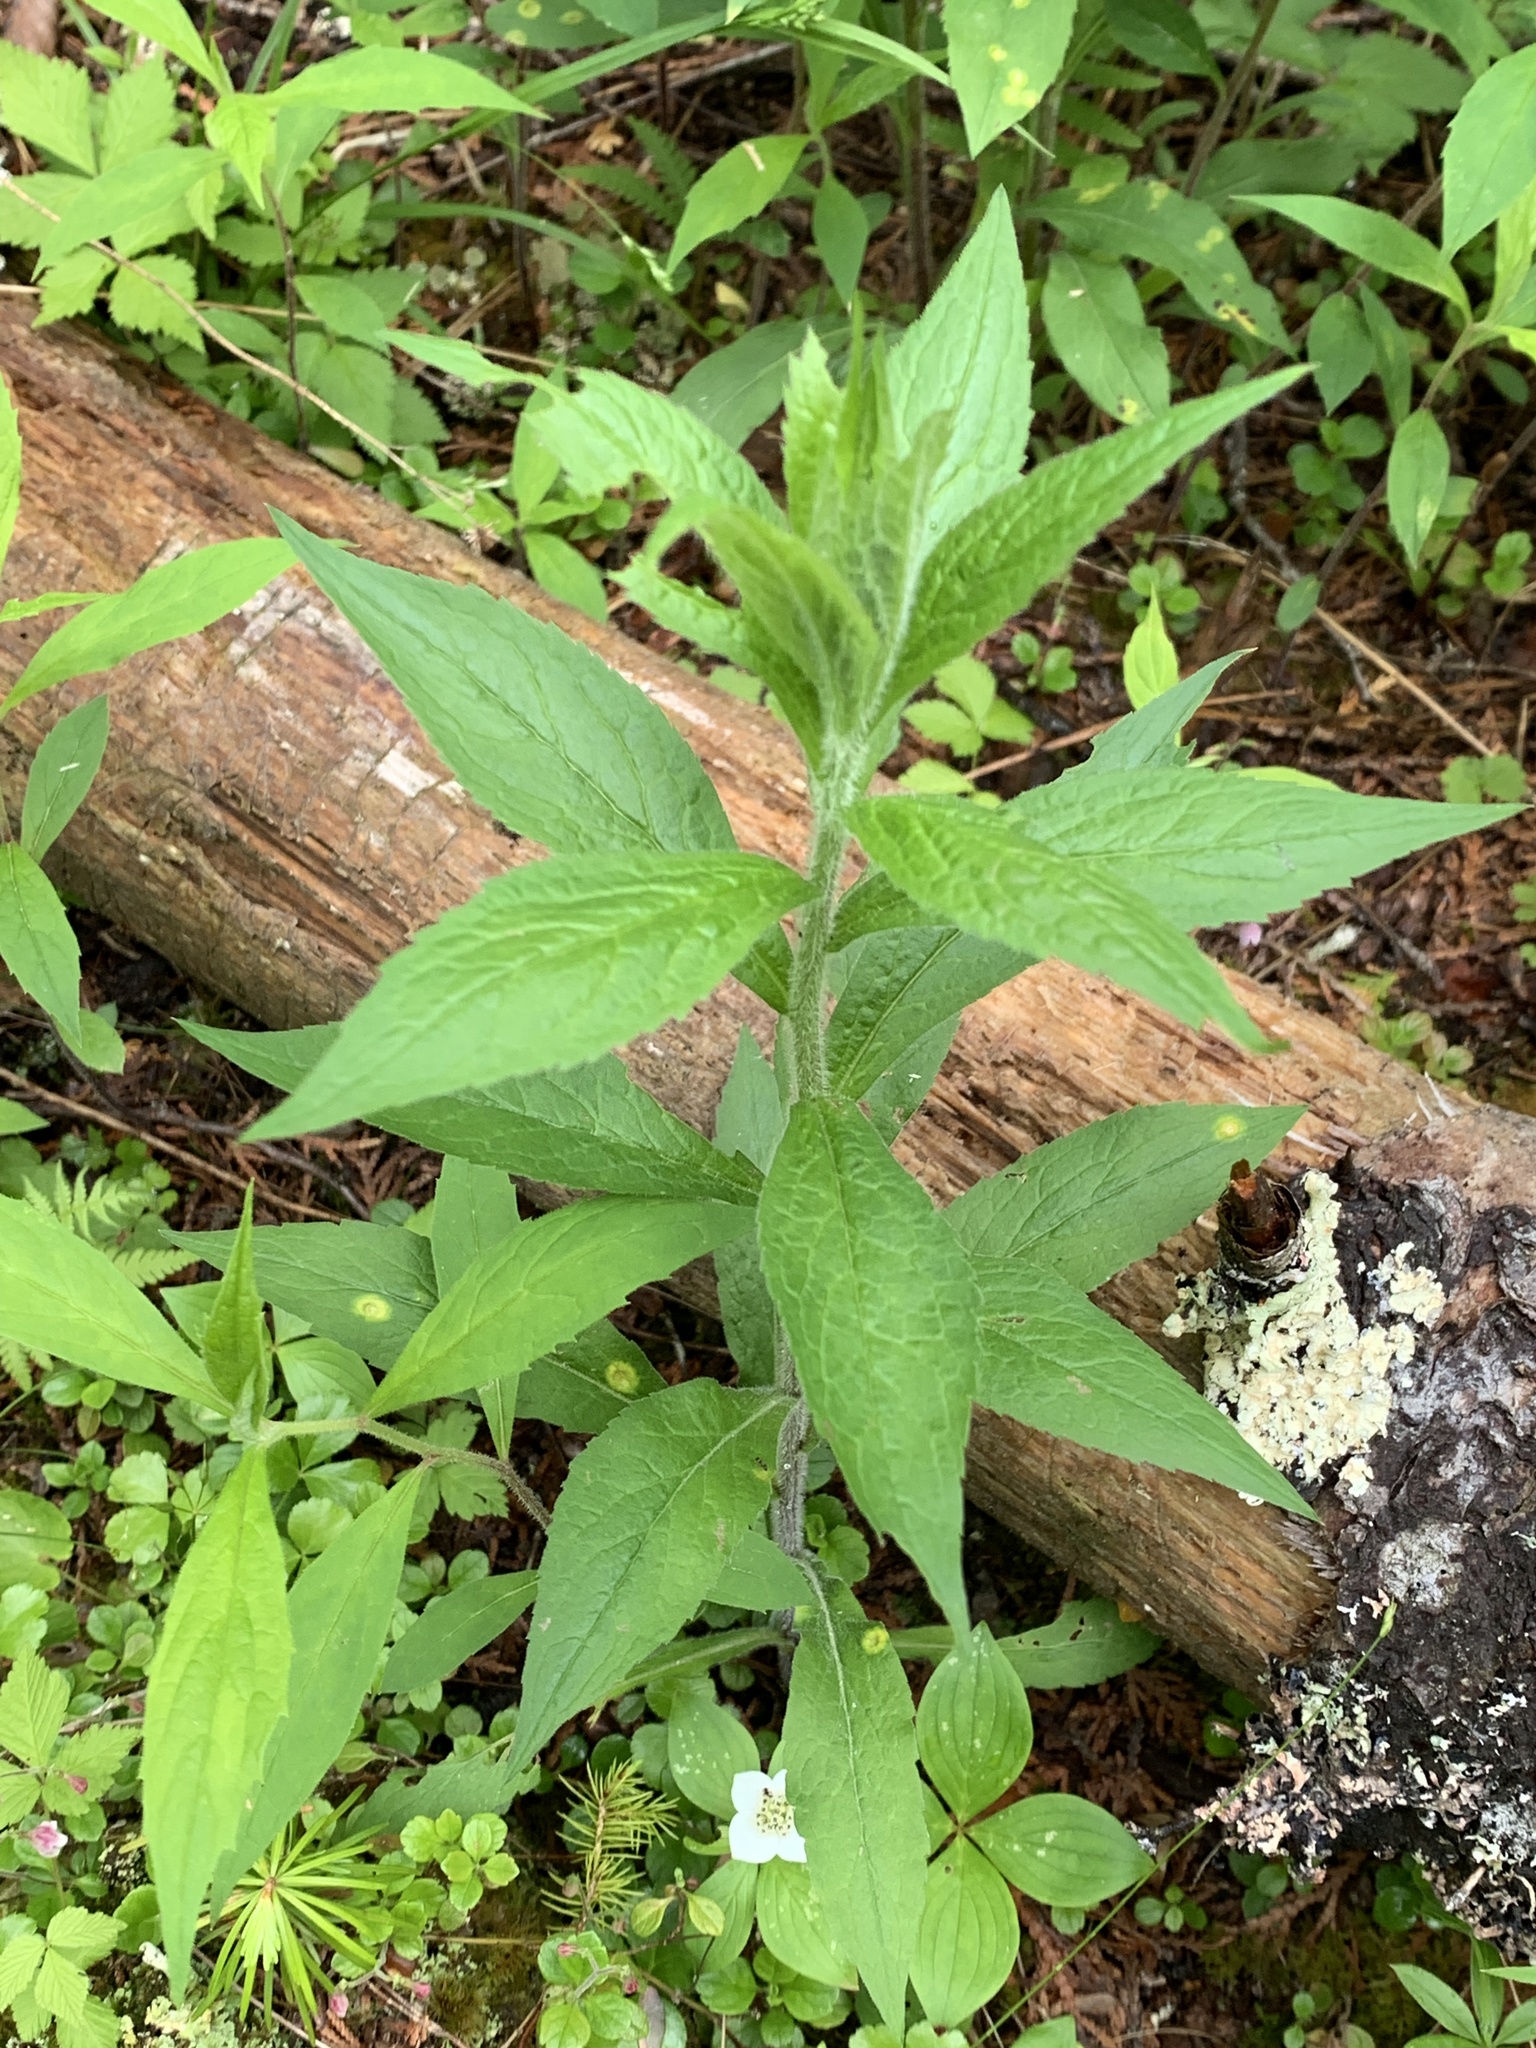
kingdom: Plantae
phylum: Tracheophyta
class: Magnoliopsida
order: Asterales
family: Asteraceae
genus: Solidago
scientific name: Solidago rugosa
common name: Rough-stemmed goldenrod
